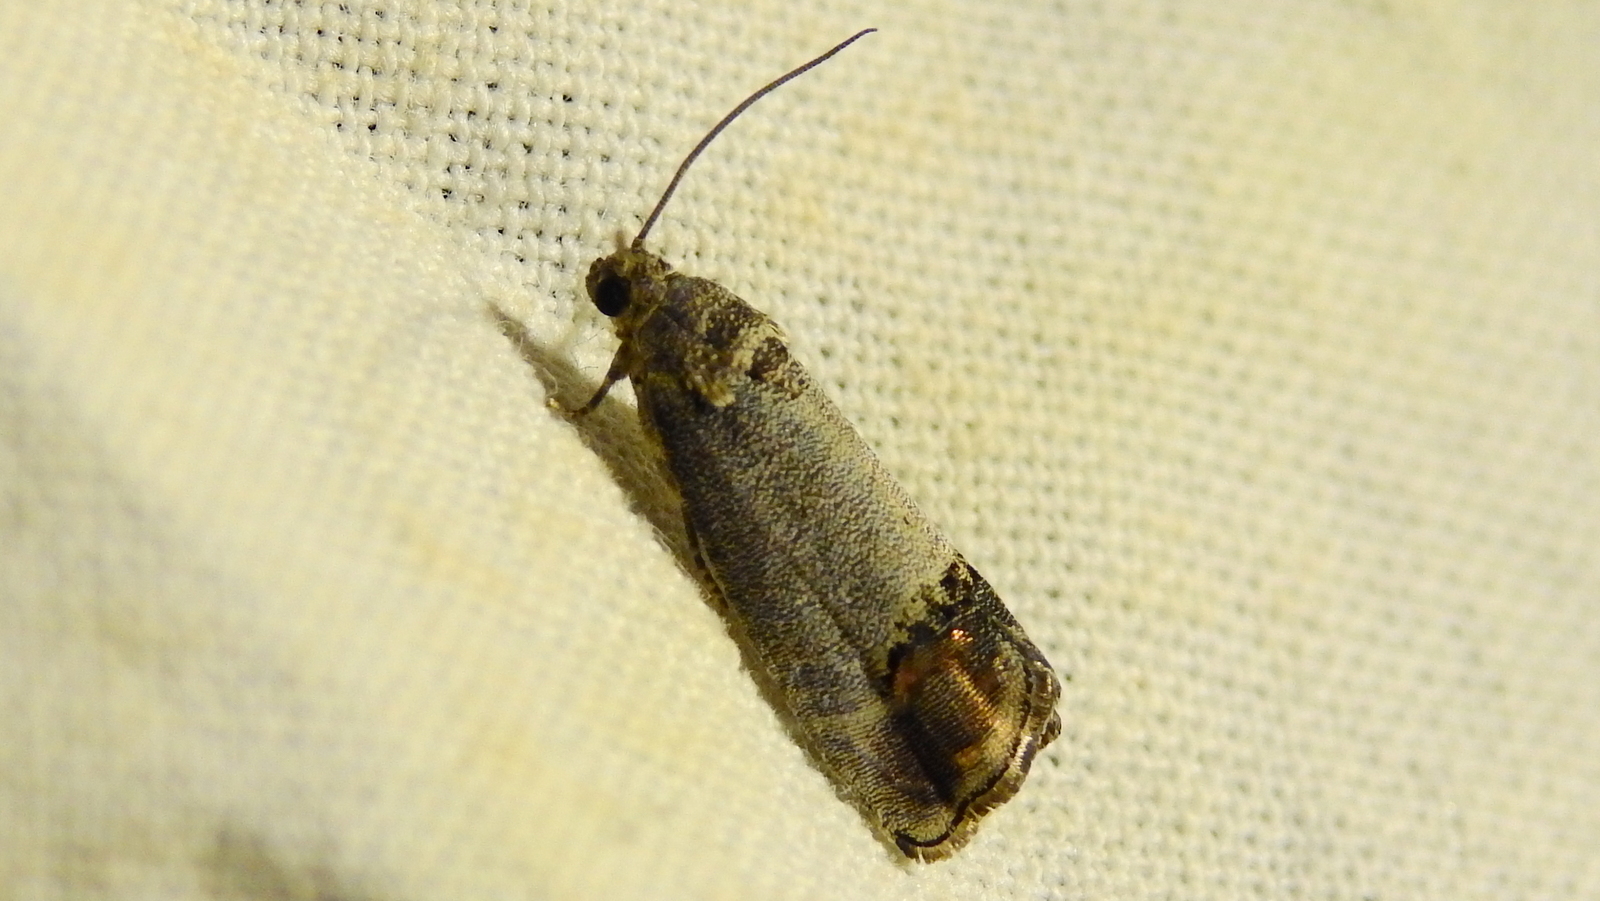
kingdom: Animalia
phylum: Arthropoda
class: Insecta
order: Lepidoptera
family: Tortricidae
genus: Cydia
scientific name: Cydia pomonella
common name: Codling moth
